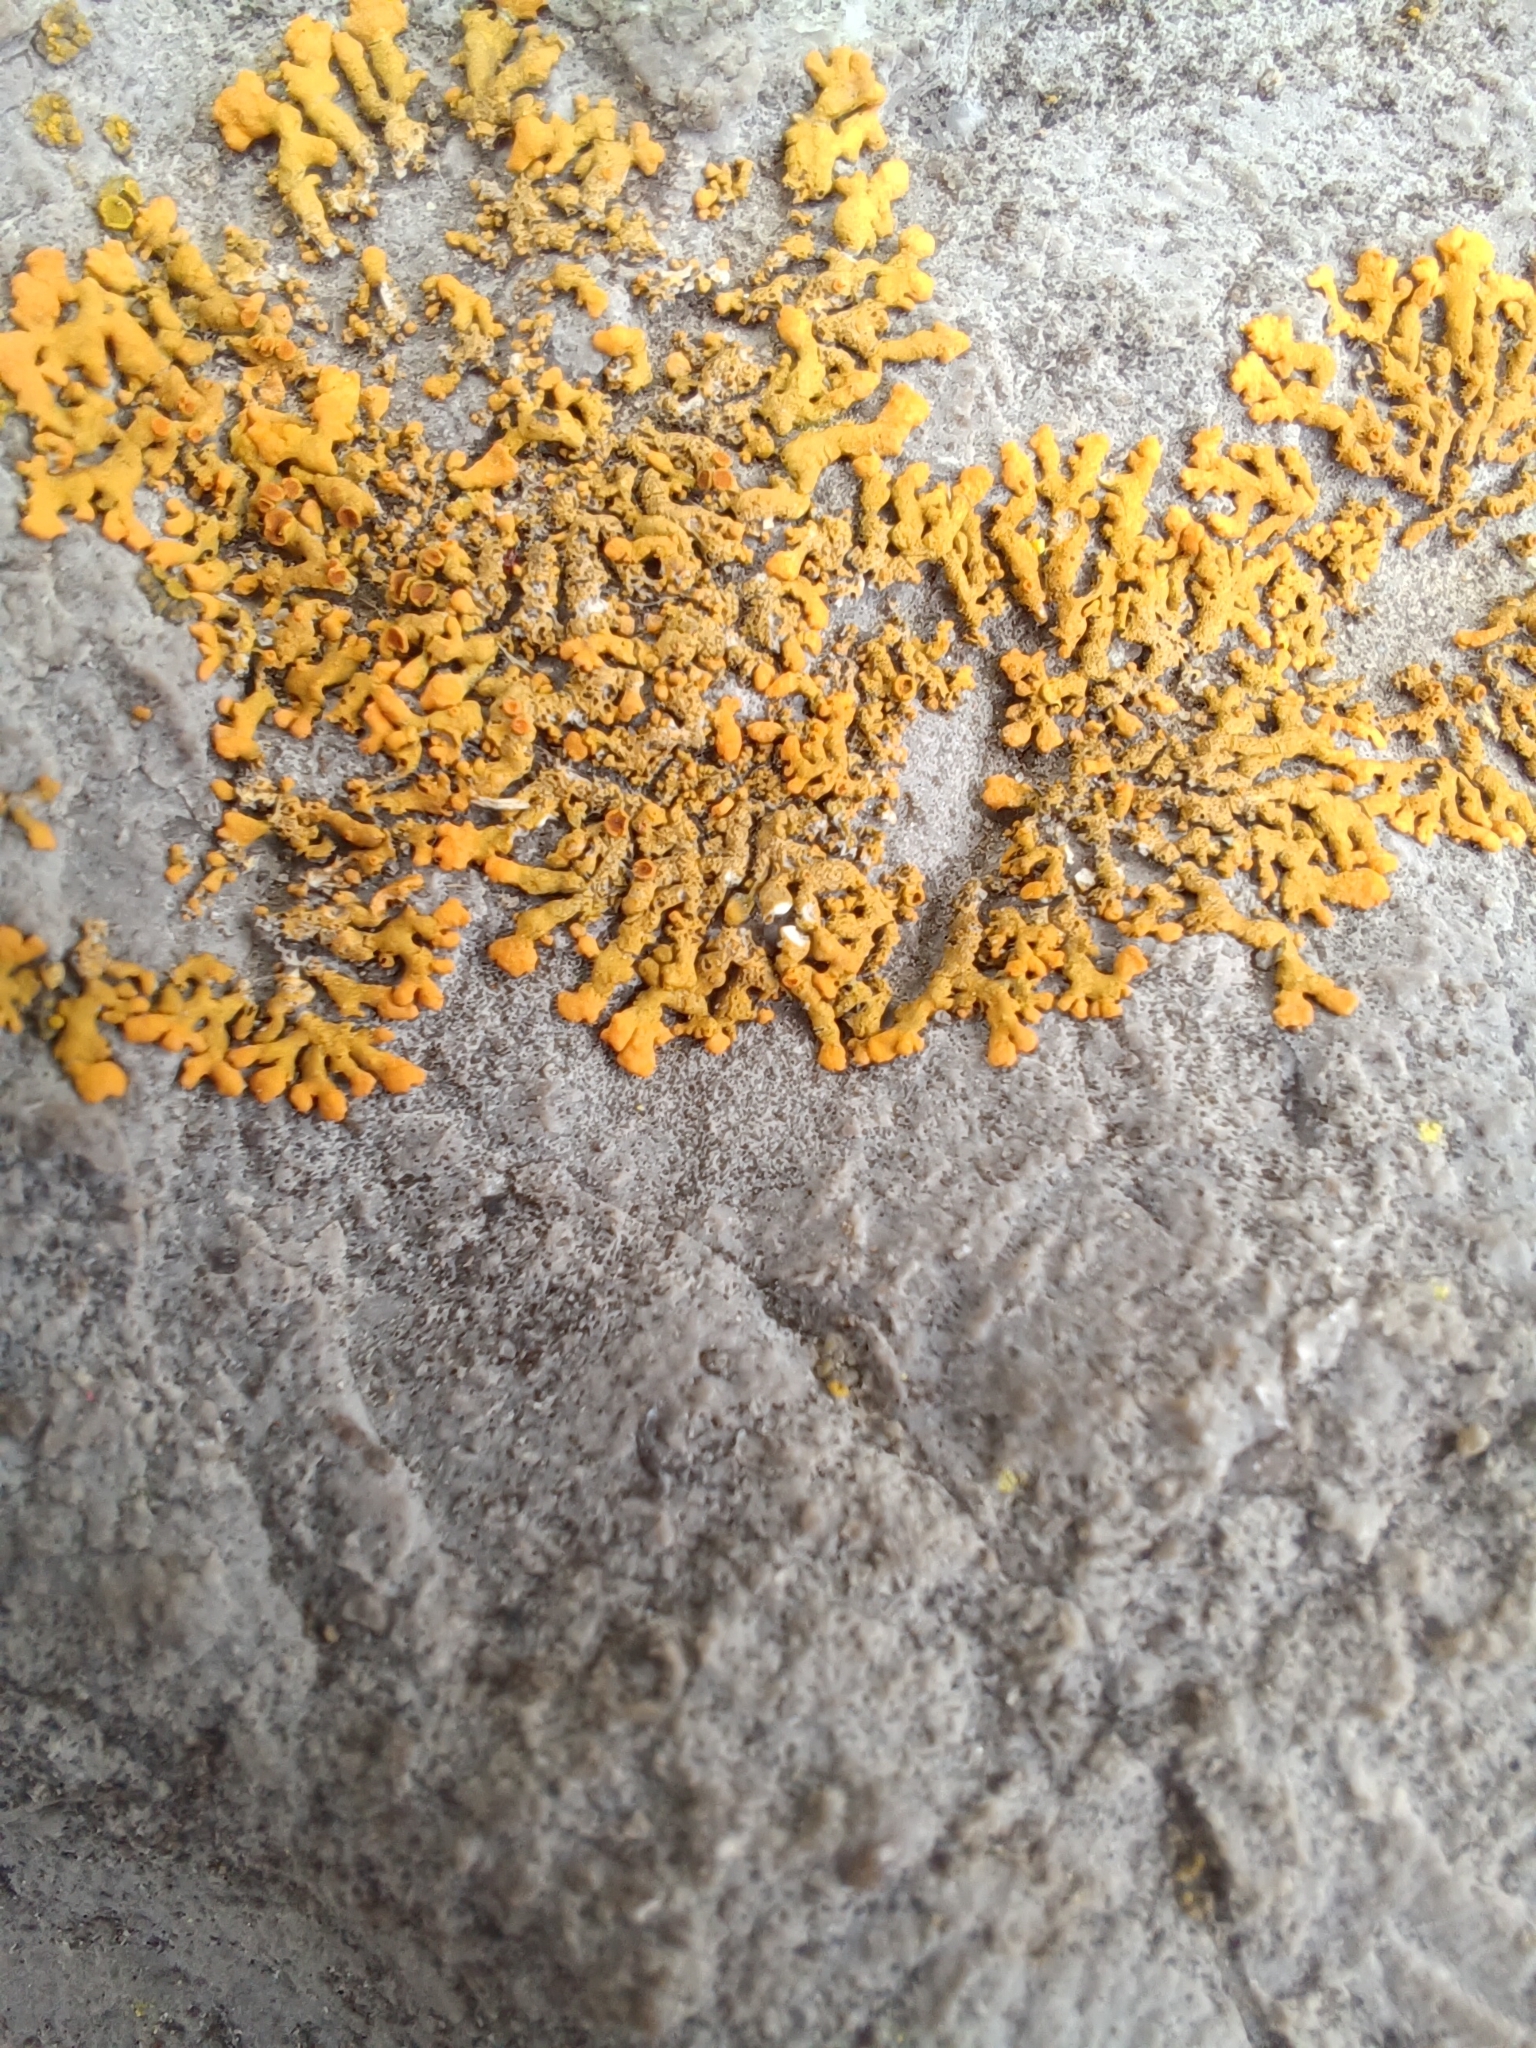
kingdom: Fungi
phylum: Ascomycota
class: Lecanoromycetes
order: Teloschistales
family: Teloschistaceae
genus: Xanthoria
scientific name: Xanthoria elegans
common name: Elegant sunburst lichen
